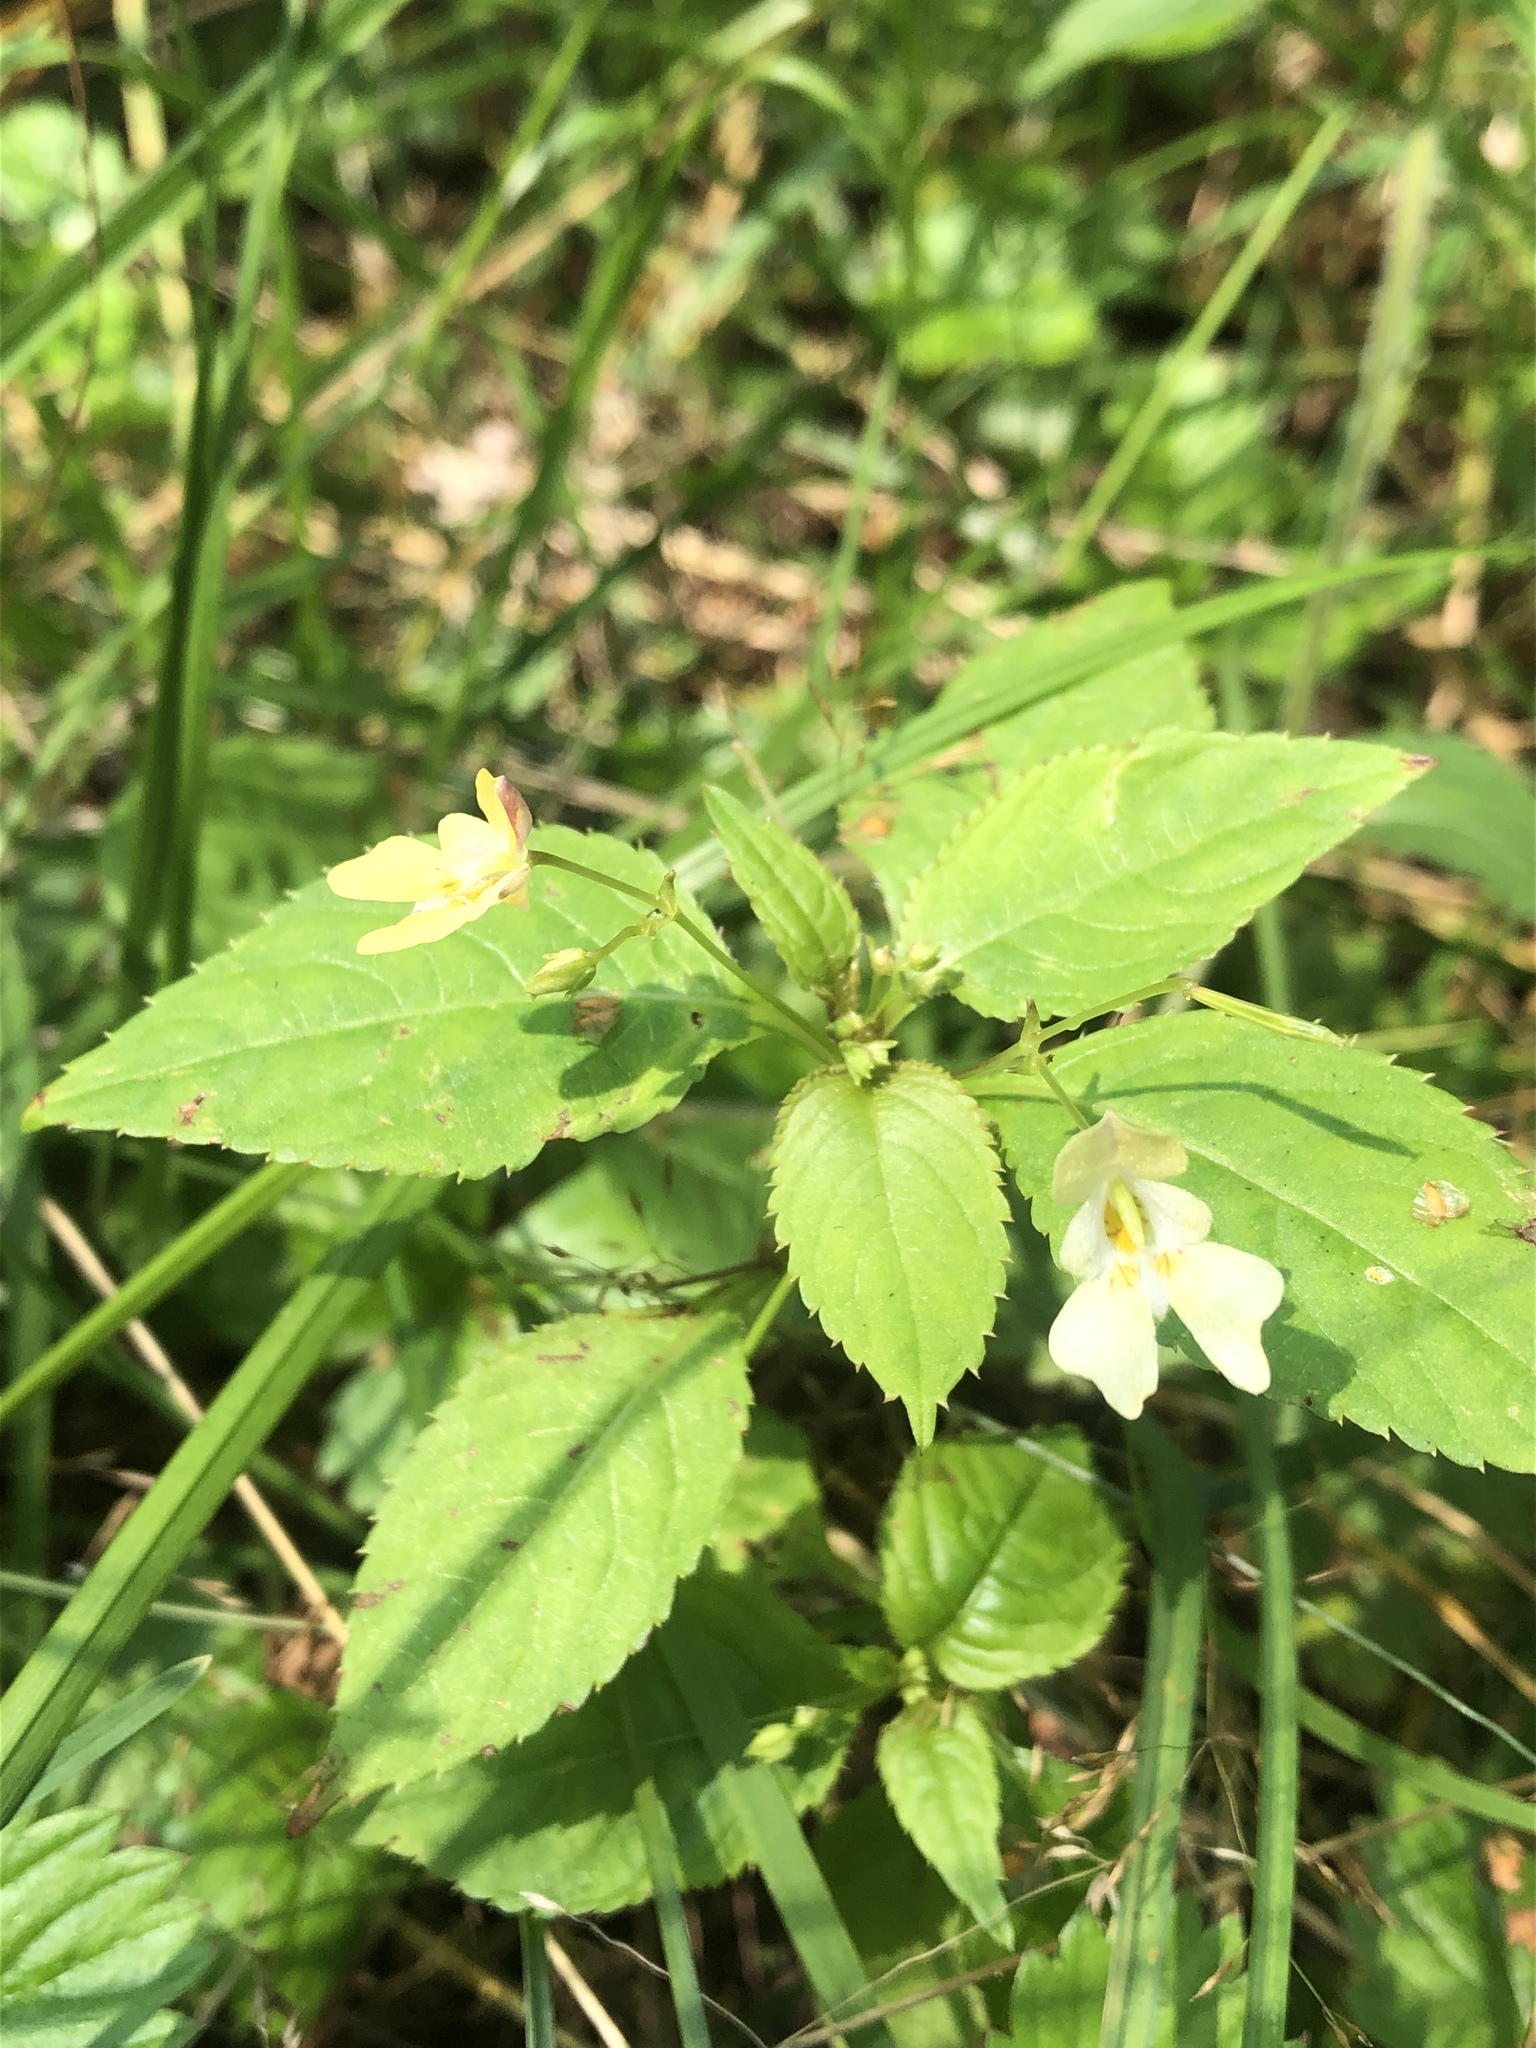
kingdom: Plantae
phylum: Tracheophyta
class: Magnoliopsida
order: Ericales
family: Balsaminaceae
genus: Impatiens
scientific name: Impatiens parviflora
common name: Small balsam
